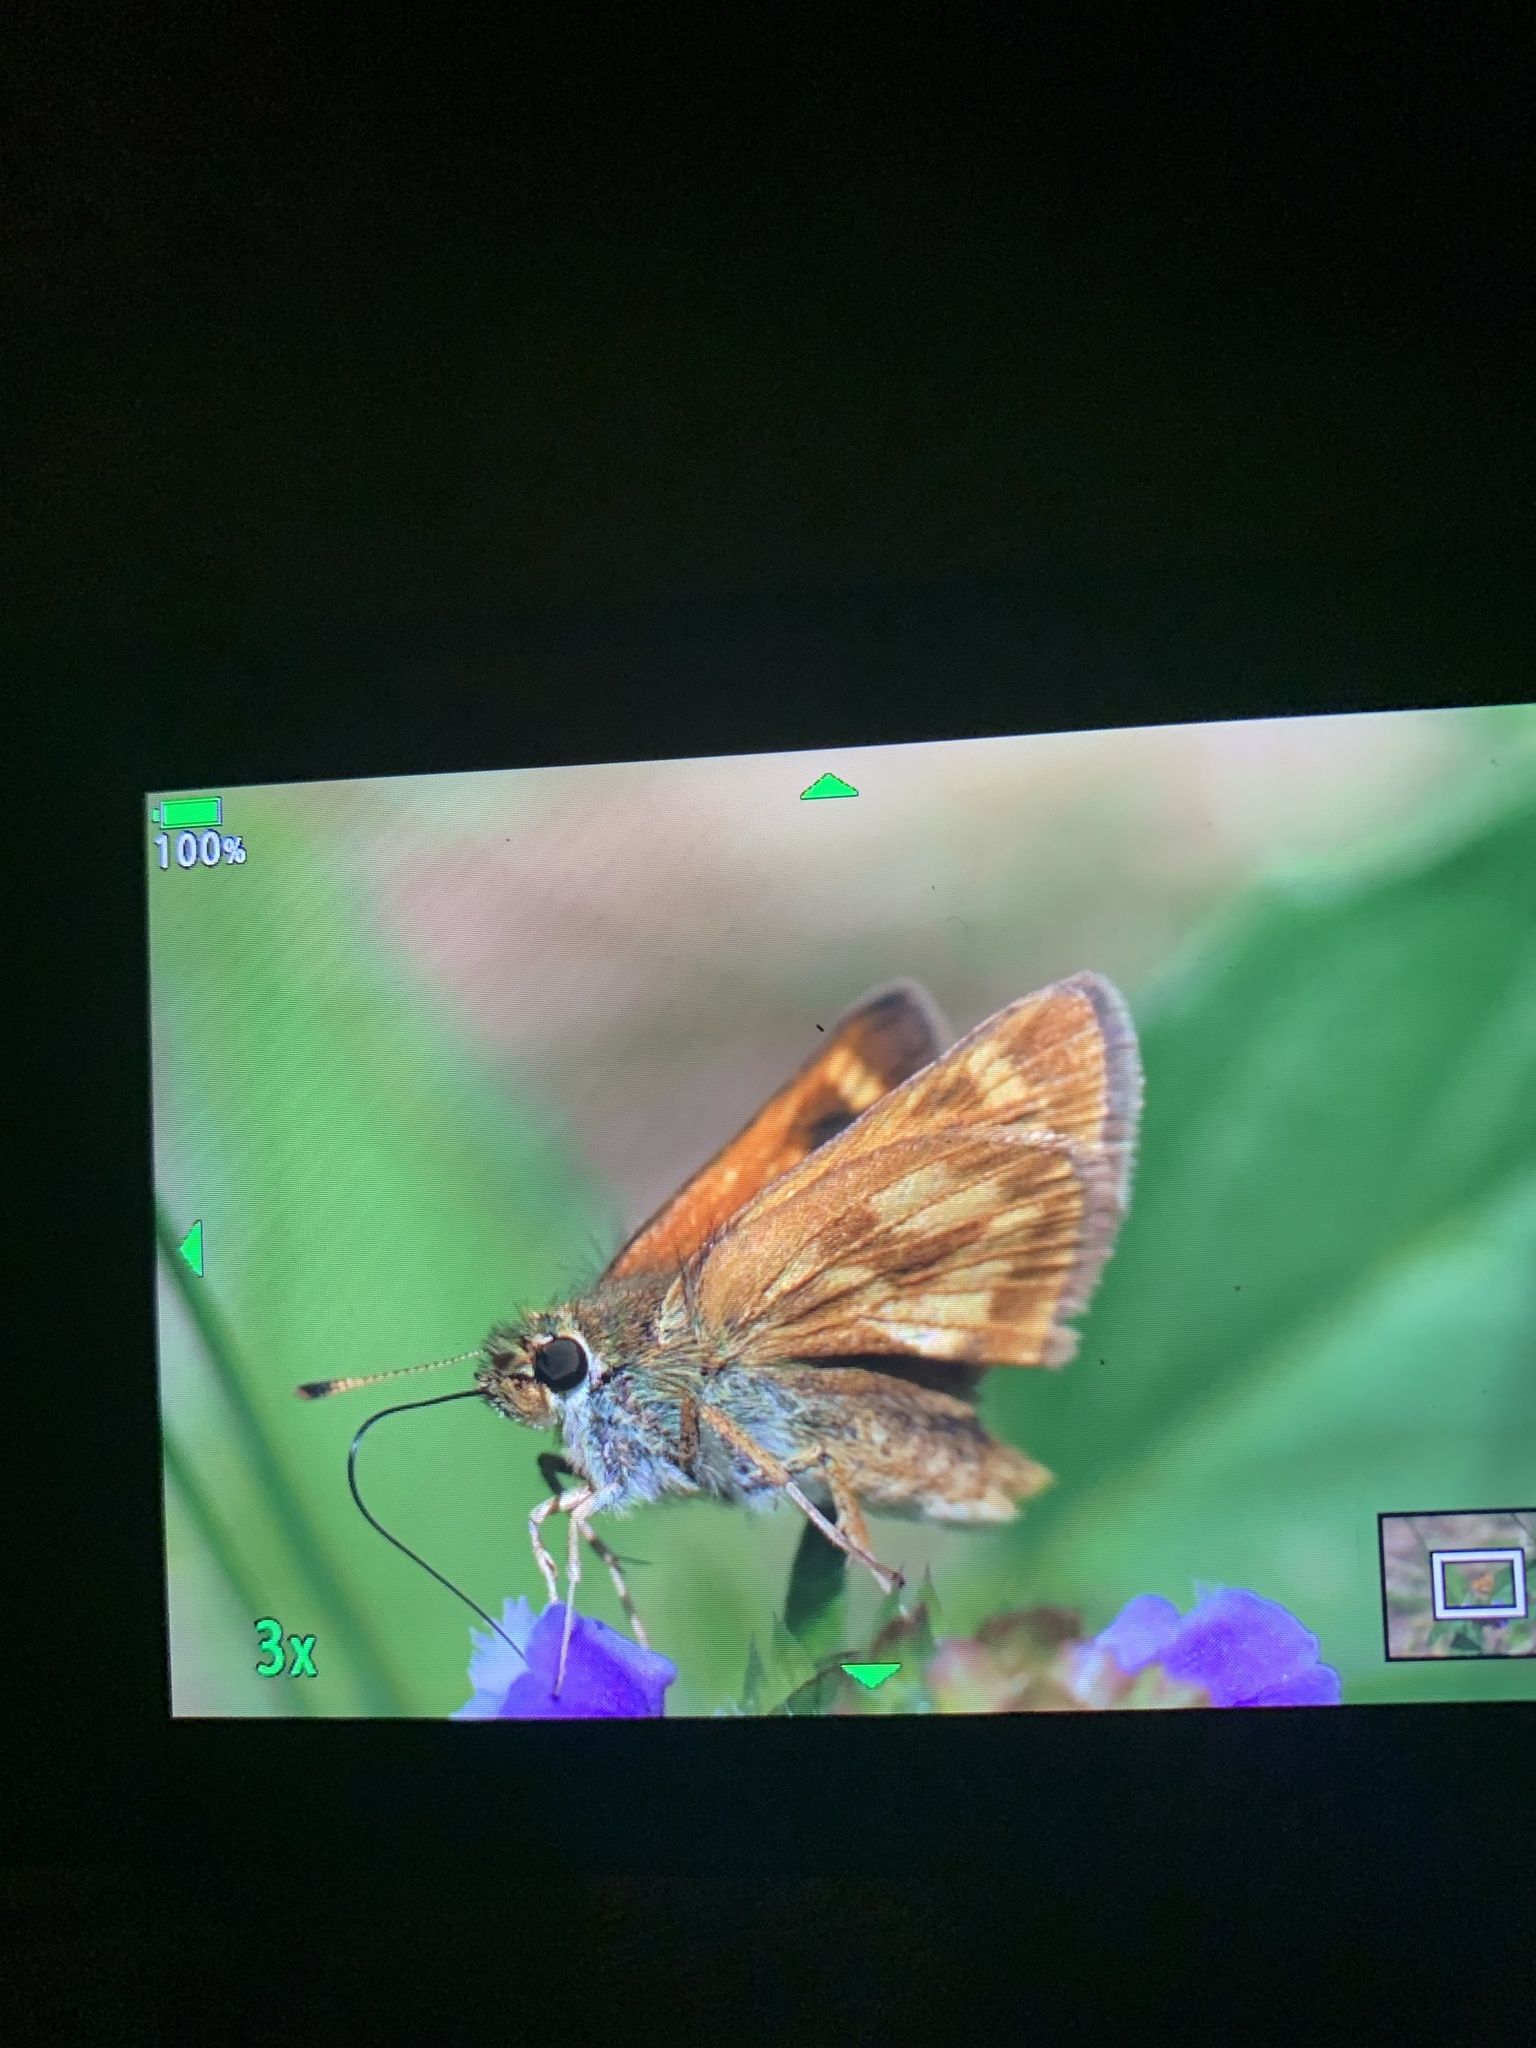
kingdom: Animalia
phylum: Arthropoda
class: Insecta
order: Lepidoptera
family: Hesperiidae
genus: Polites
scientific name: Polites mystic
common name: Long dash
